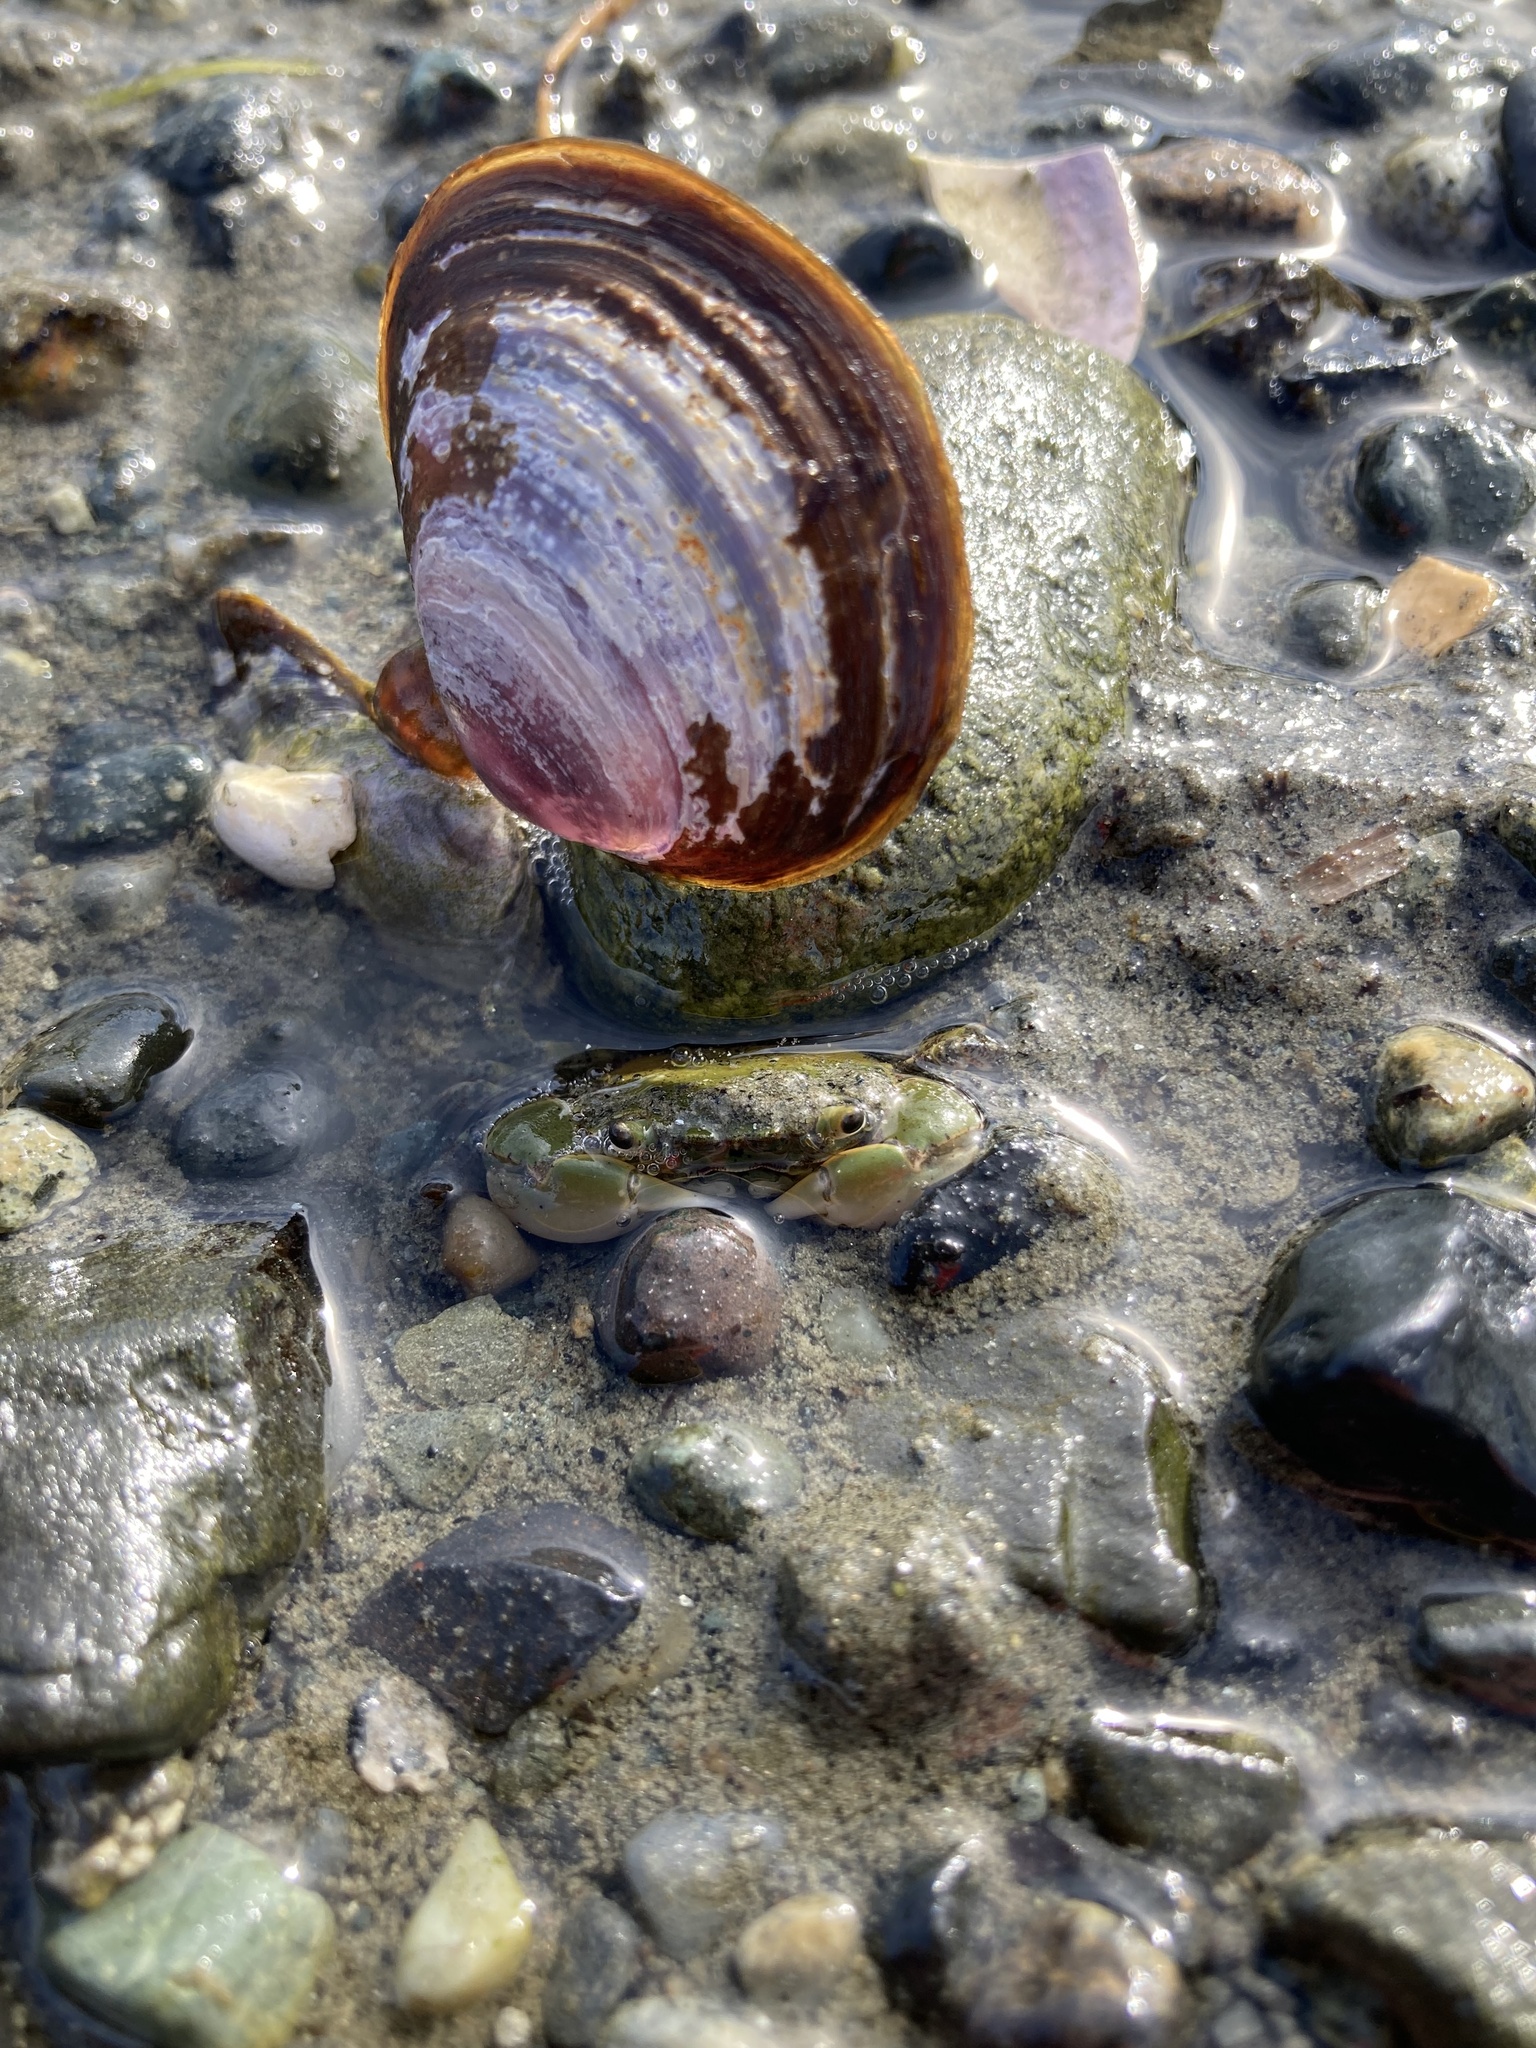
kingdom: Animalia
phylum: Arthropoda
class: Malacostraca
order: Decapoda
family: Varunidae
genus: Hemigrapsus
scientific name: Hemigrapsus oregonensis
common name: Yellow shore crab
